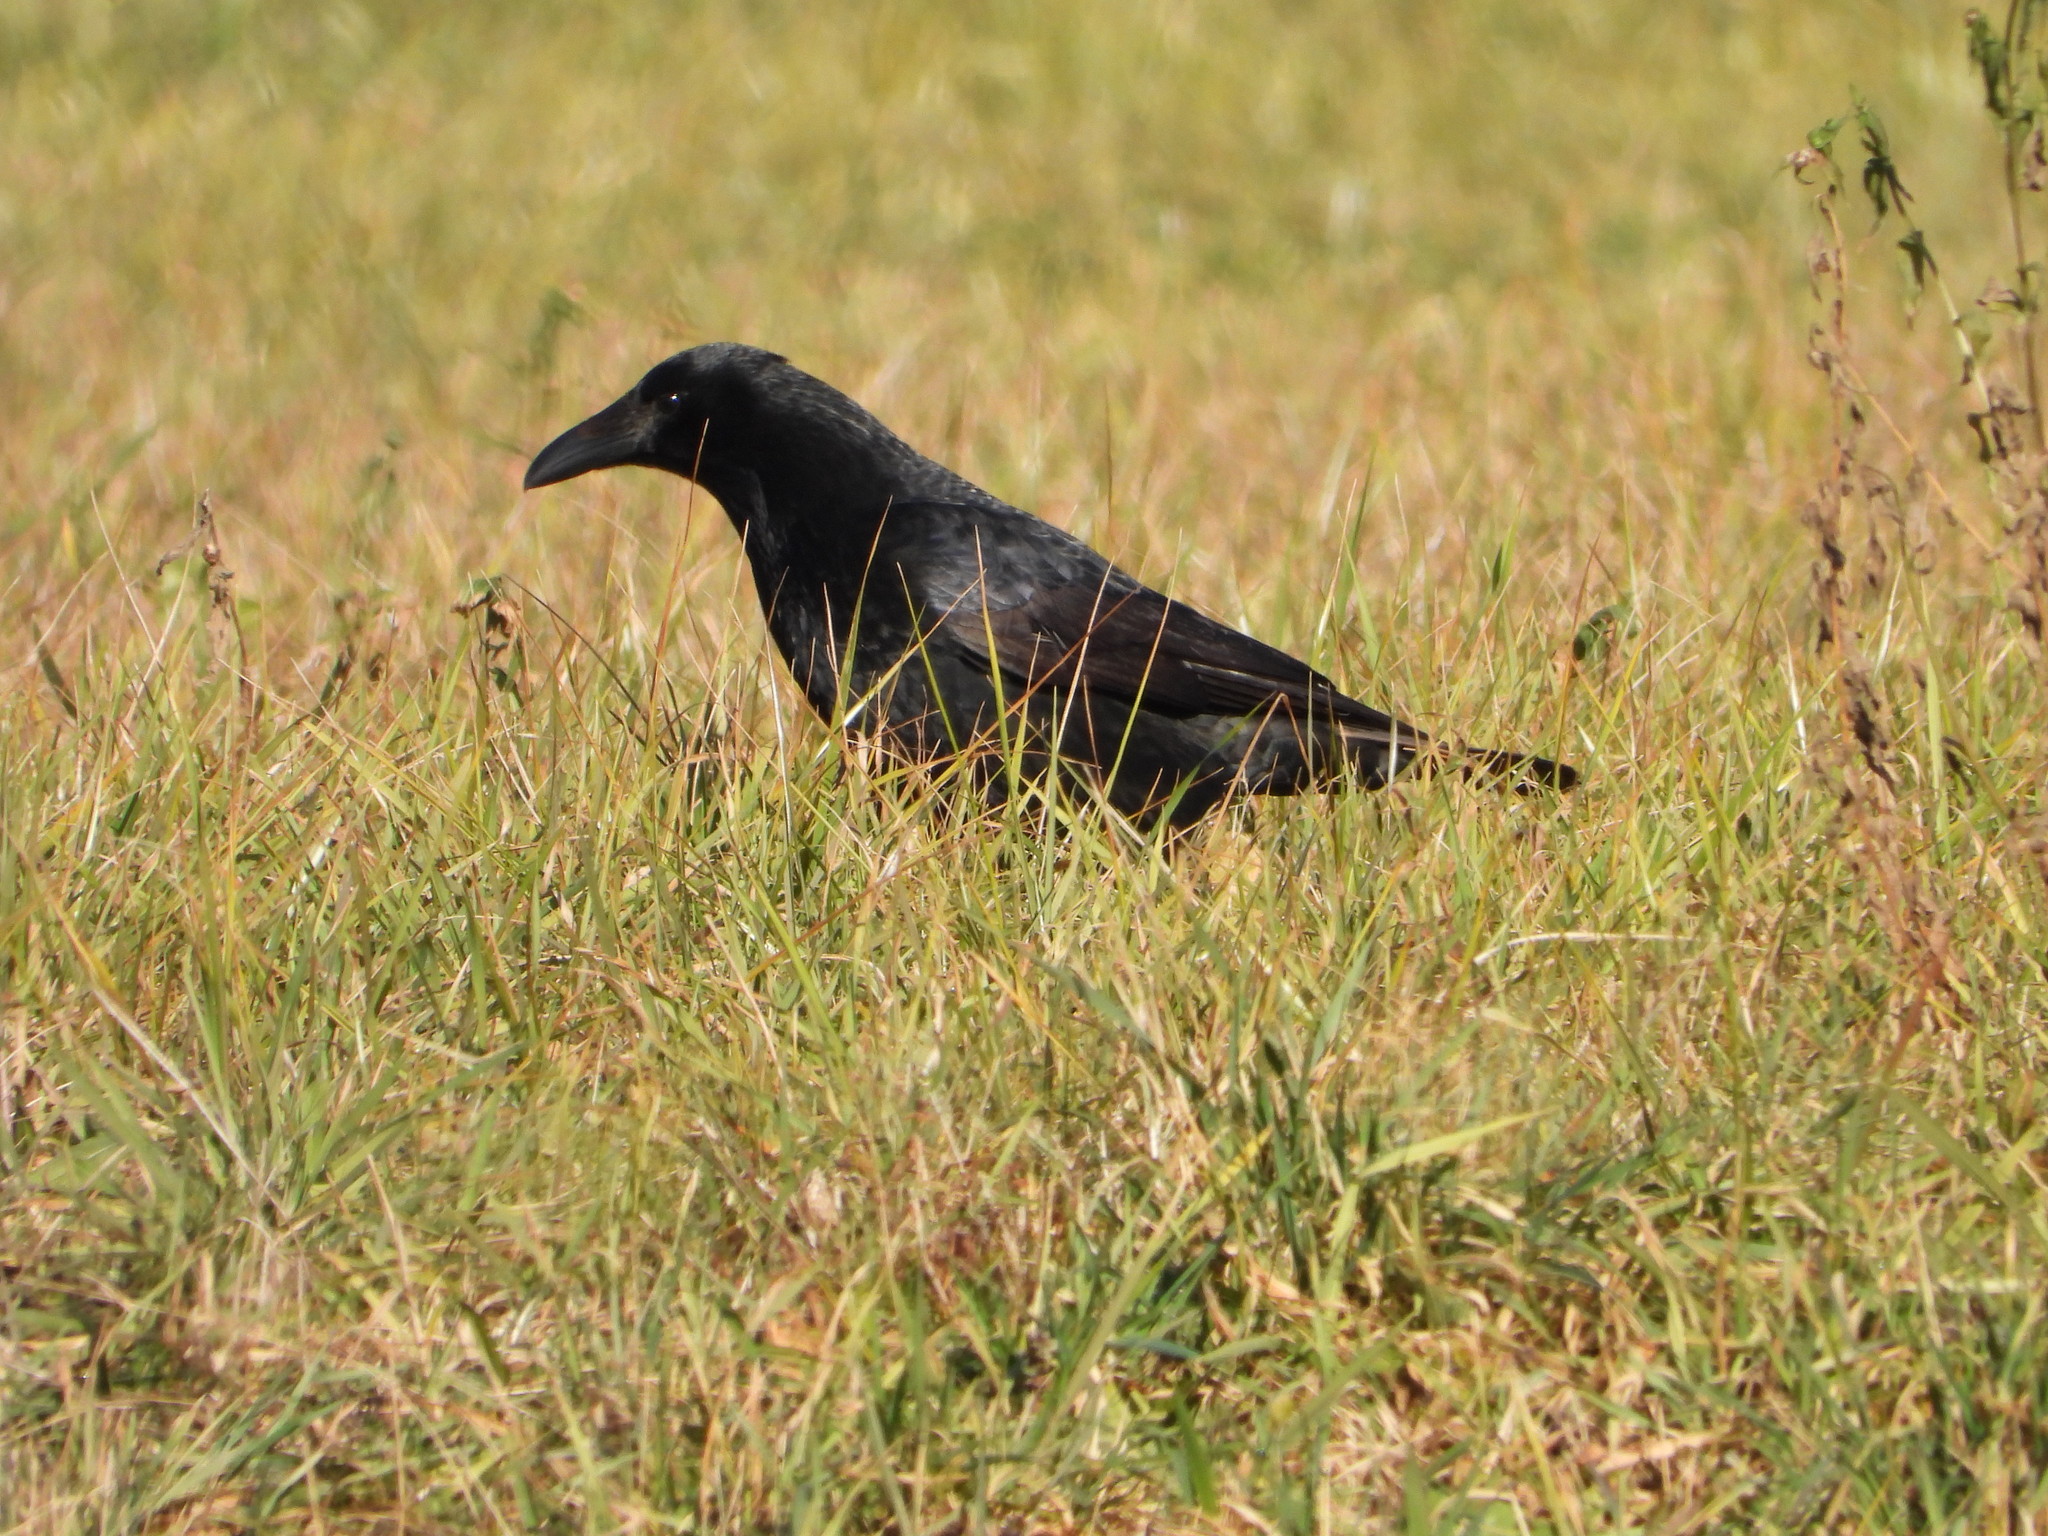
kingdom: Animalia
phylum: Chordata
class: Aves
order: Passeriformes
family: Corvidae
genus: Corvus
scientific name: Corvus corone
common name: Carrion crow
